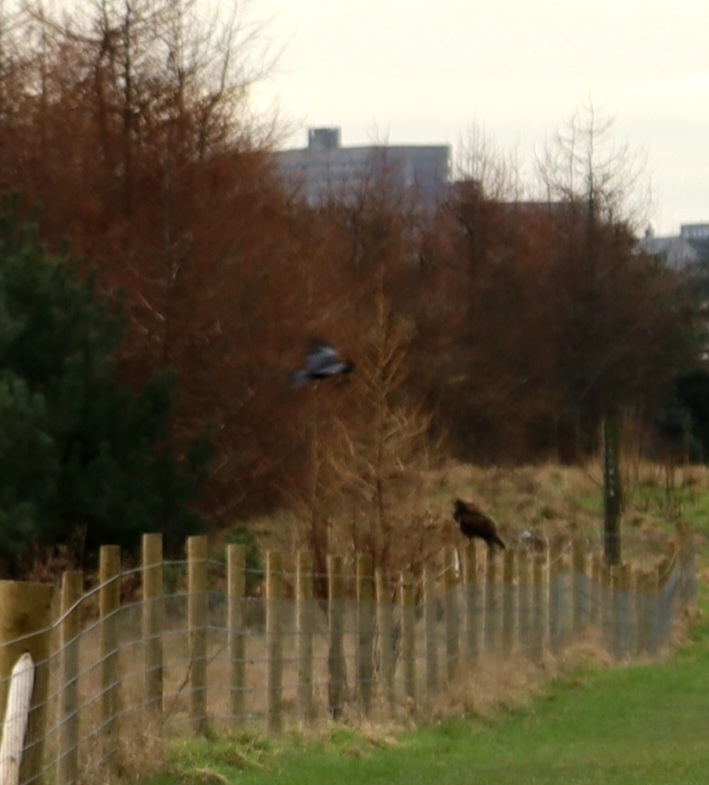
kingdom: Animalia
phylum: Chordata
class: Aves
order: Accipitriformes
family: Accipitridae
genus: Buteo
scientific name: Buteo buteo
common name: Common buzzard
